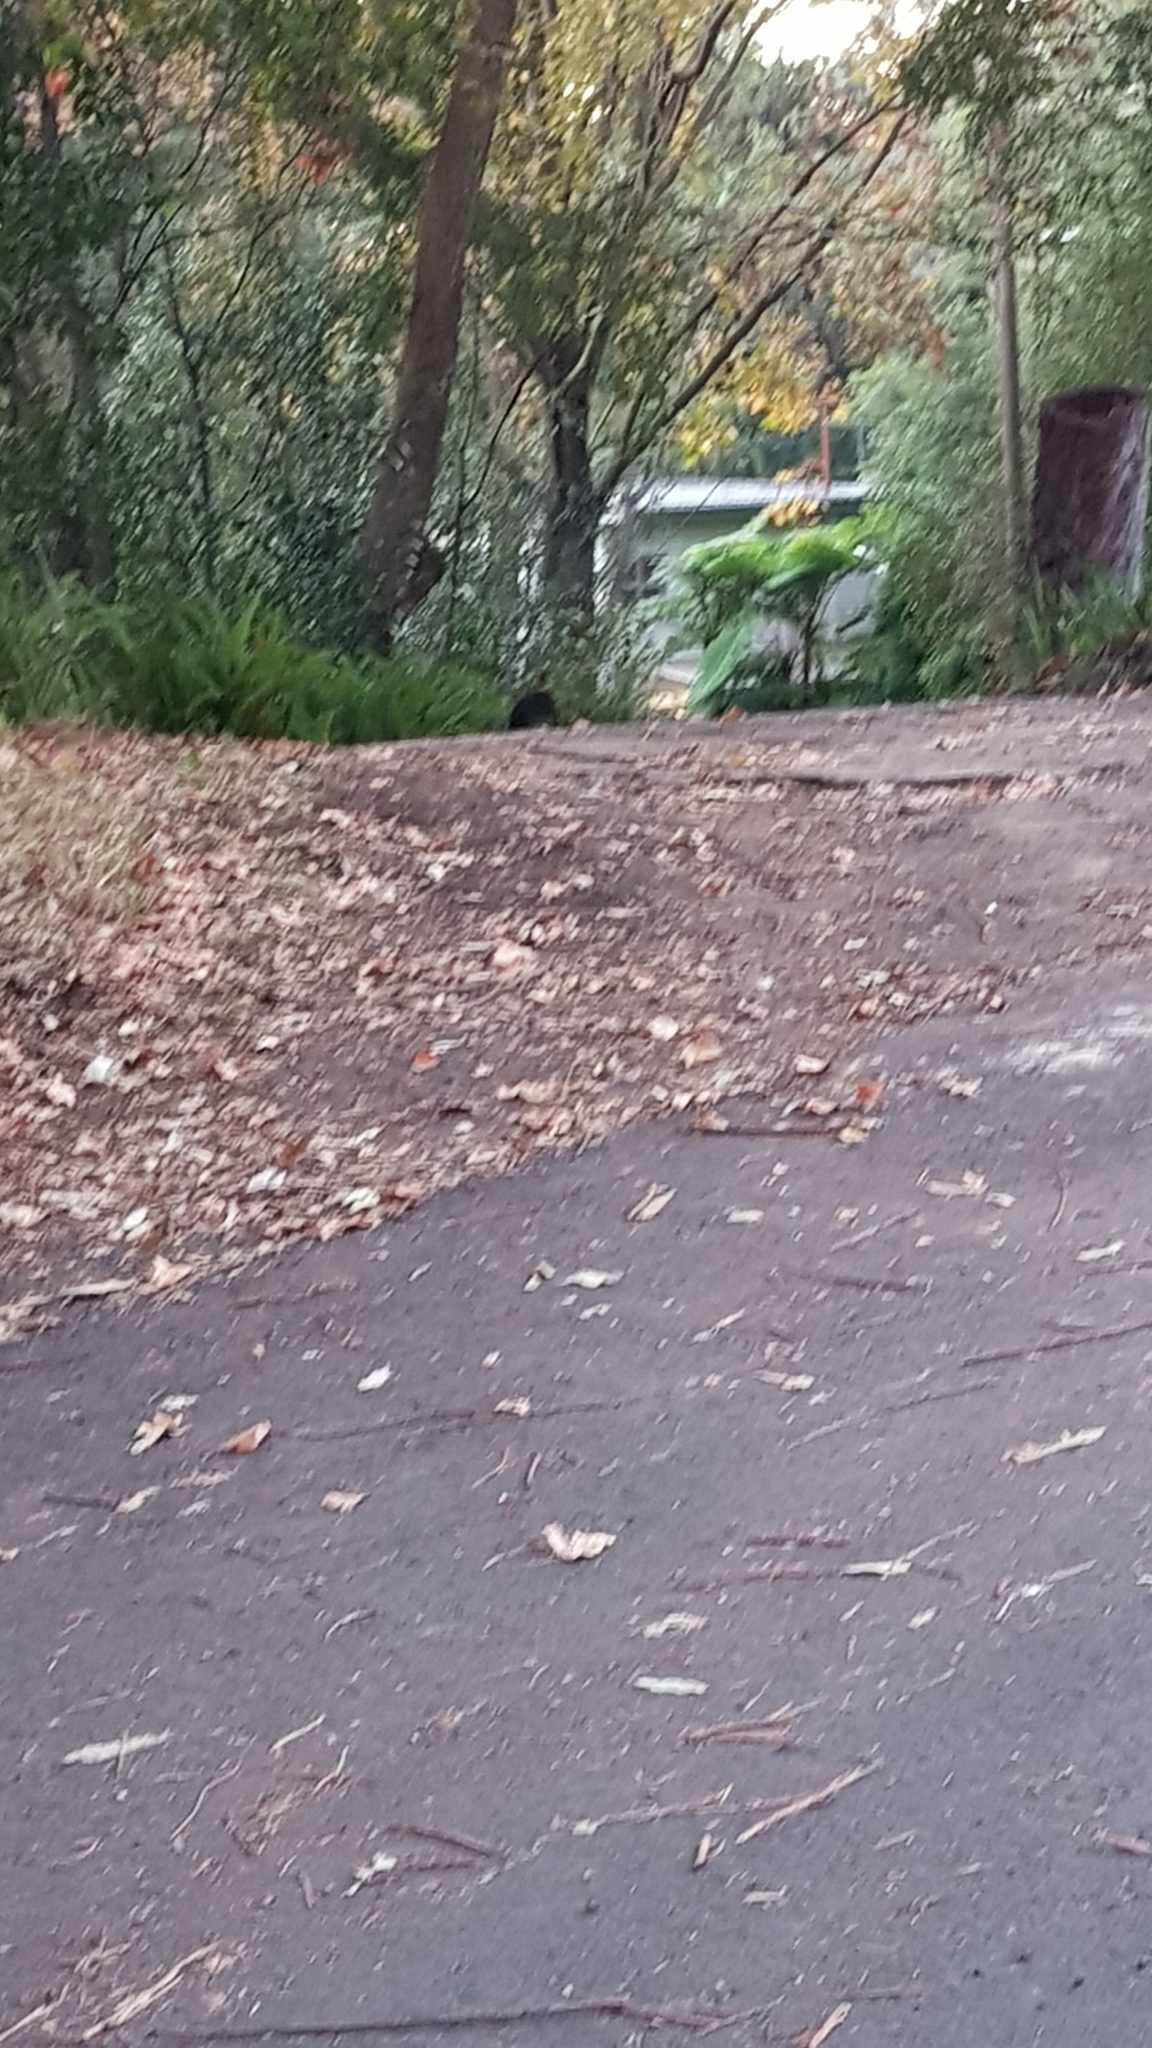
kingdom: Animalia
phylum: Chordata
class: Aves
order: Galliformes
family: Megapodiidae
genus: Alectura
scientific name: Alectura lathami
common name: Australian brushturkey
